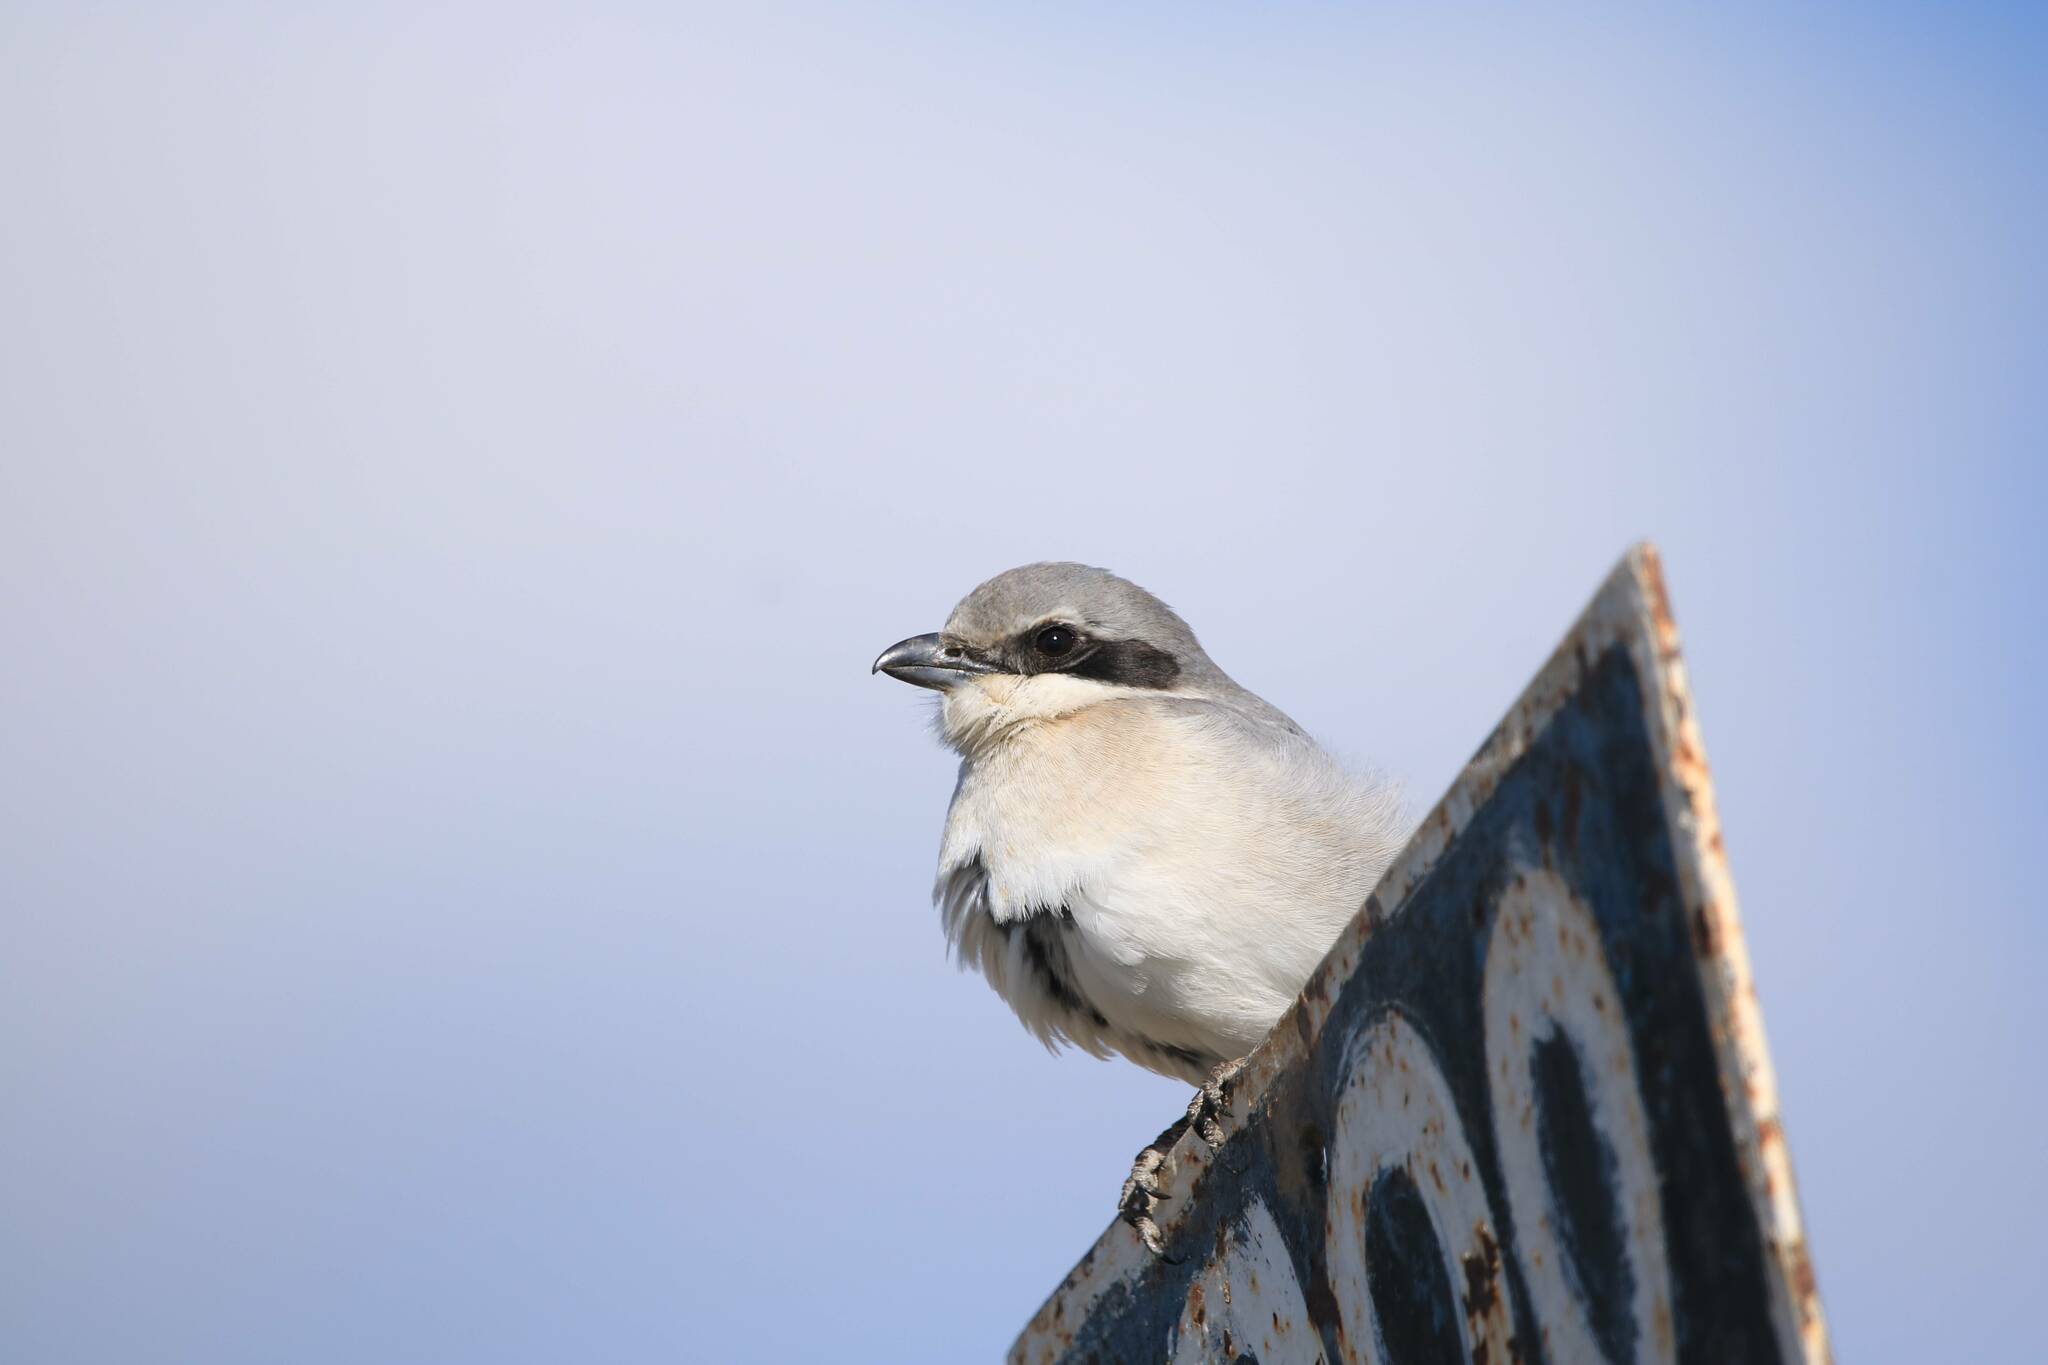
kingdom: Animalia
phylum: Chordata
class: Aves
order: Passeriformes
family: Laniidae
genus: Lanius
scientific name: Lanius excubitor
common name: Great grey shrike
